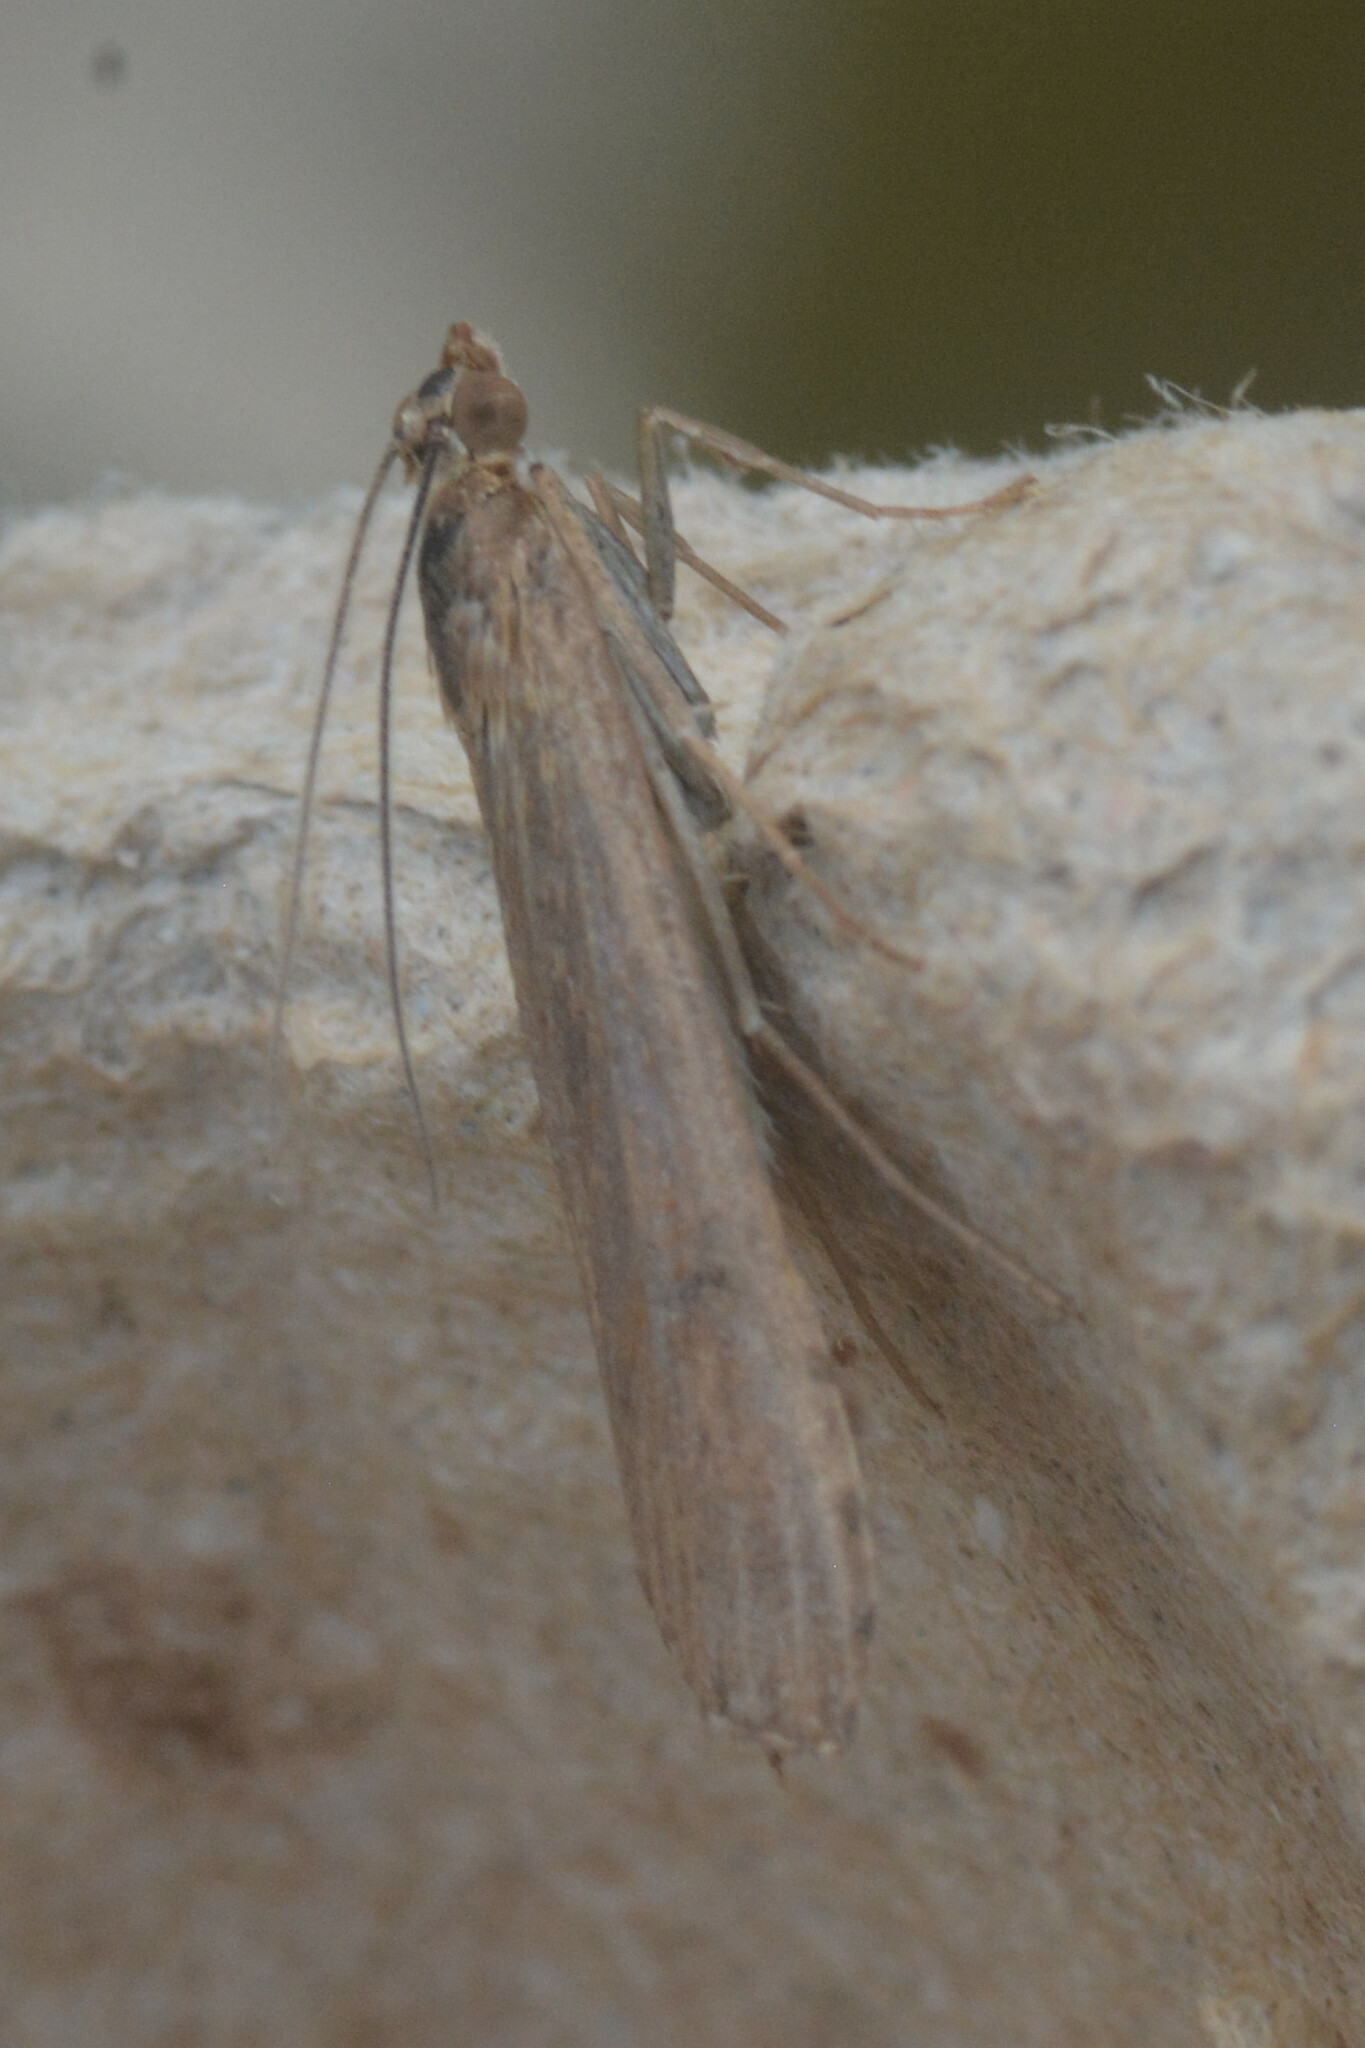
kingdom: Animalia
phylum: Arthropoda
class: Insecta
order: Lepidoptera
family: Crambidae
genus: Nomophila
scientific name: Nomophila noctuella
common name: Rush veneer
